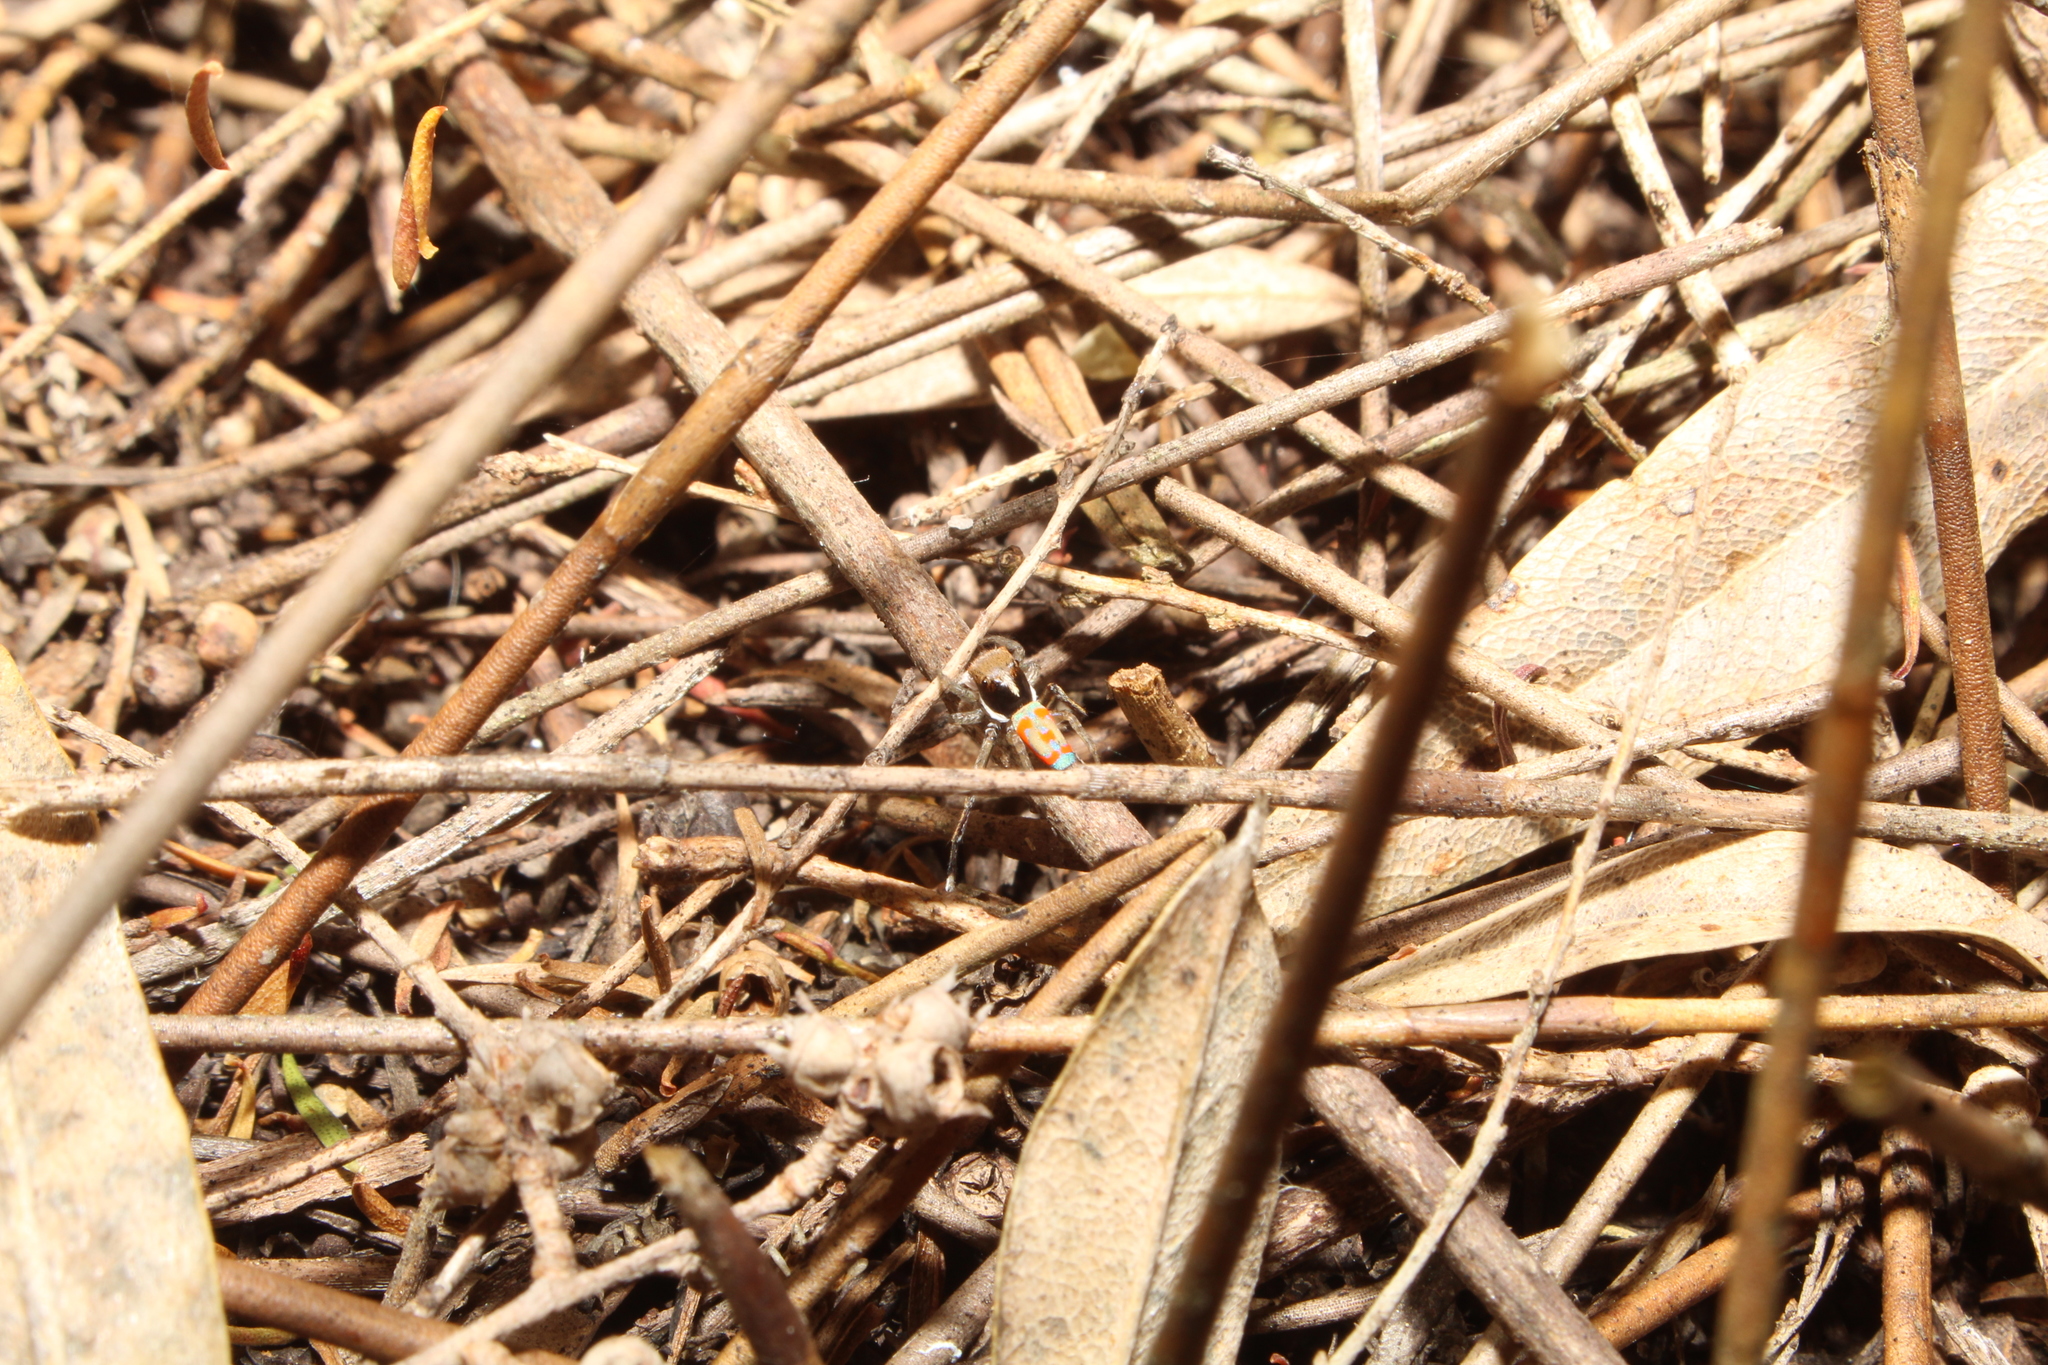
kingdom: Animalia
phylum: Arthropoda
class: Arachnida
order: Araneae
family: Salticidae
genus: Maratus
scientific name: Maratus pavonis
